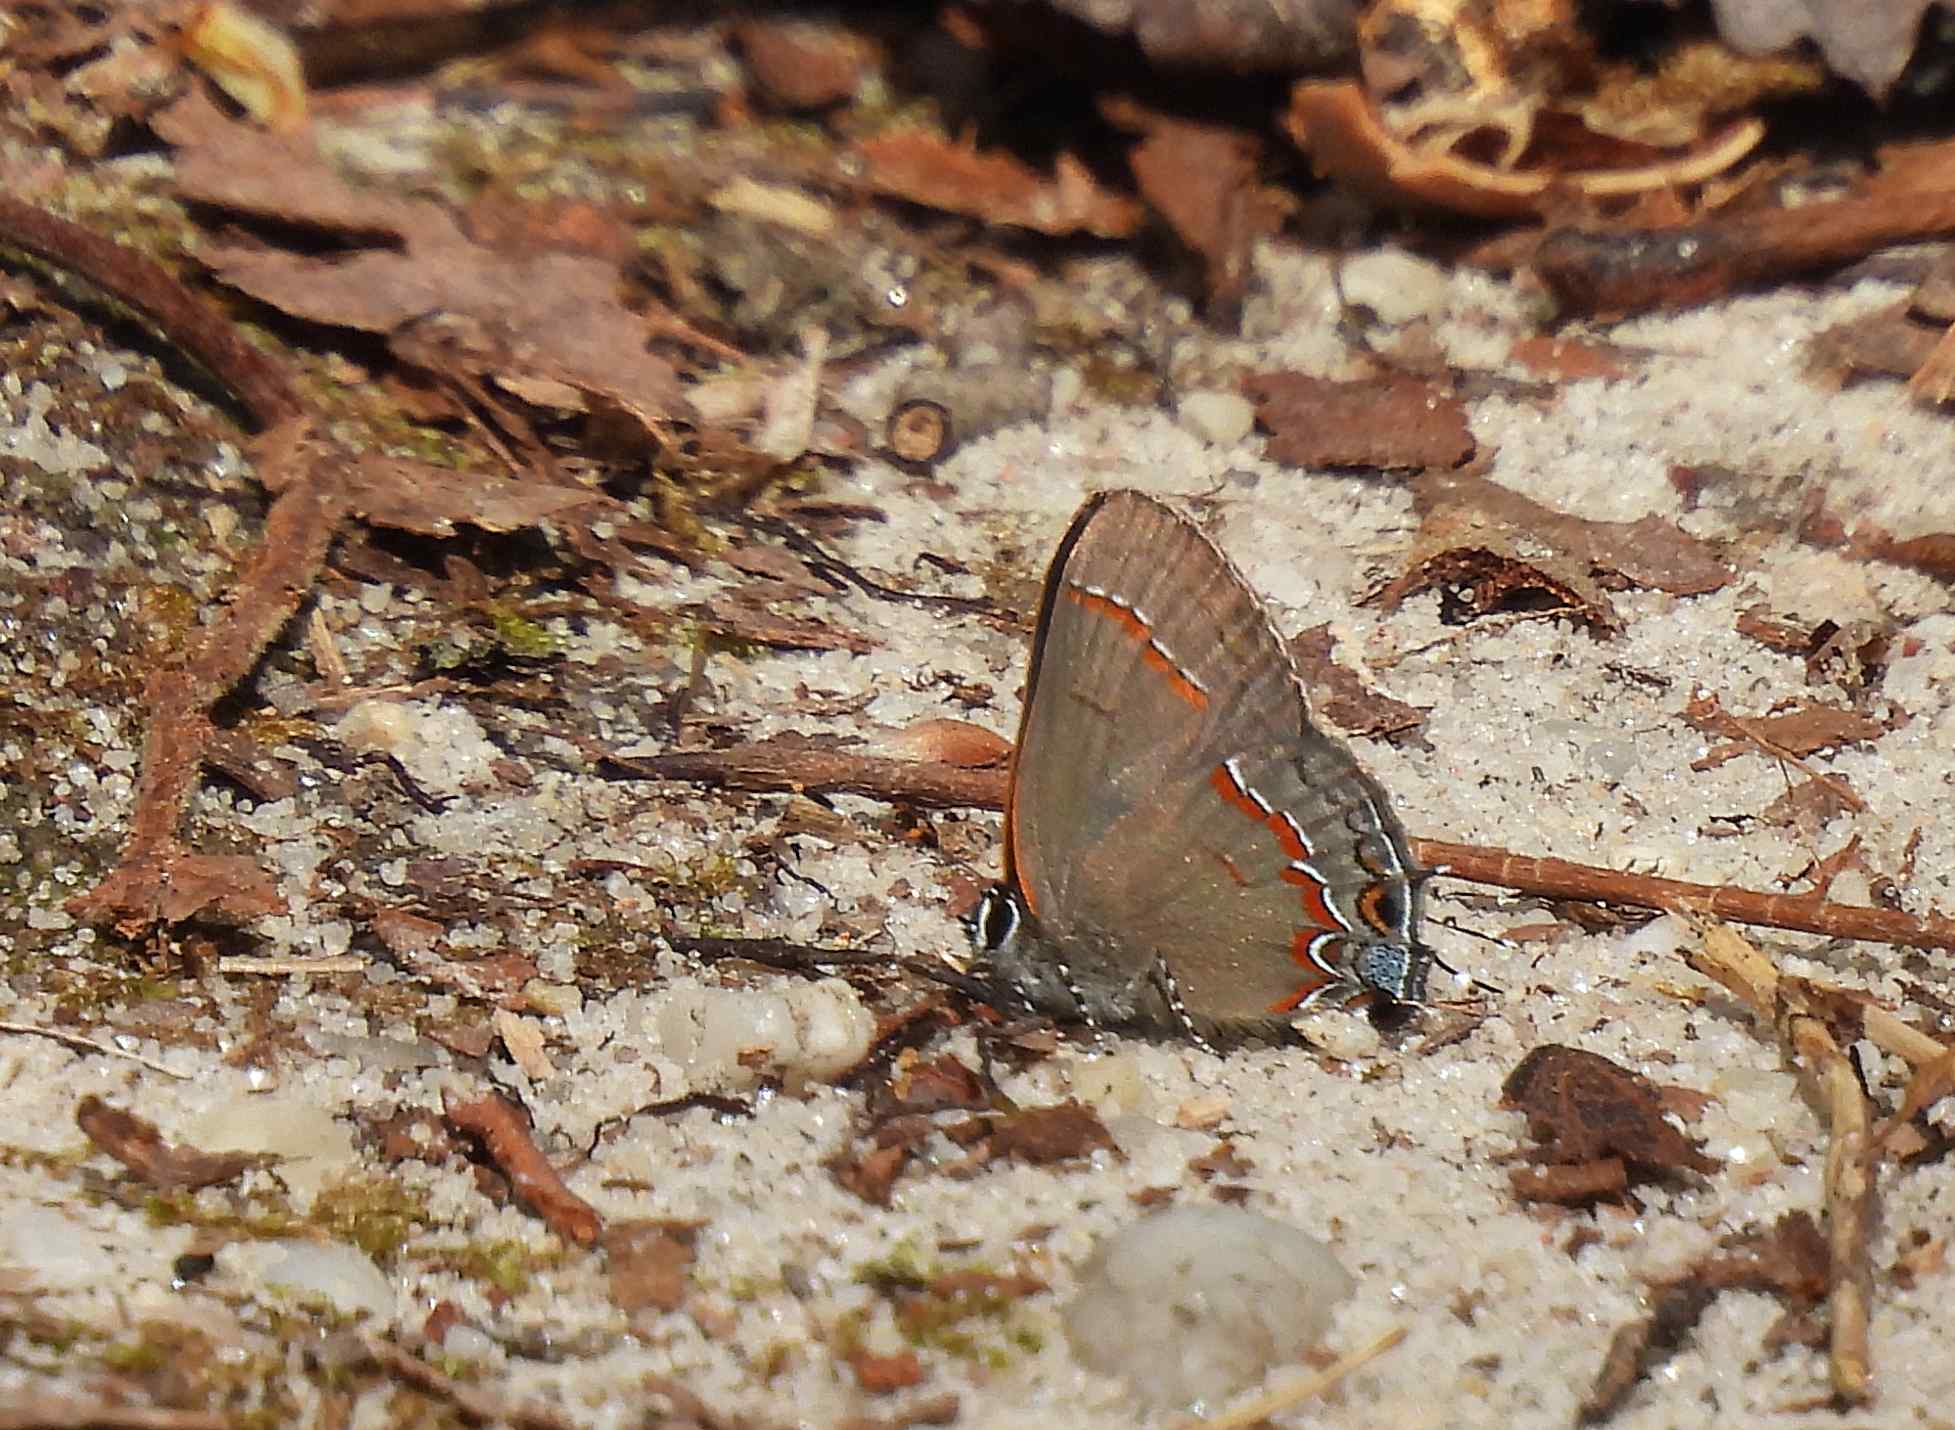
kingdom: Animalia
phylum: Arthropoda
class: Insecta
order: Lepidoptera
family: Lycaenidae
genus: Calycopis
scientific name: Calycopis cecrops
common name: Red-banded hairstreak
